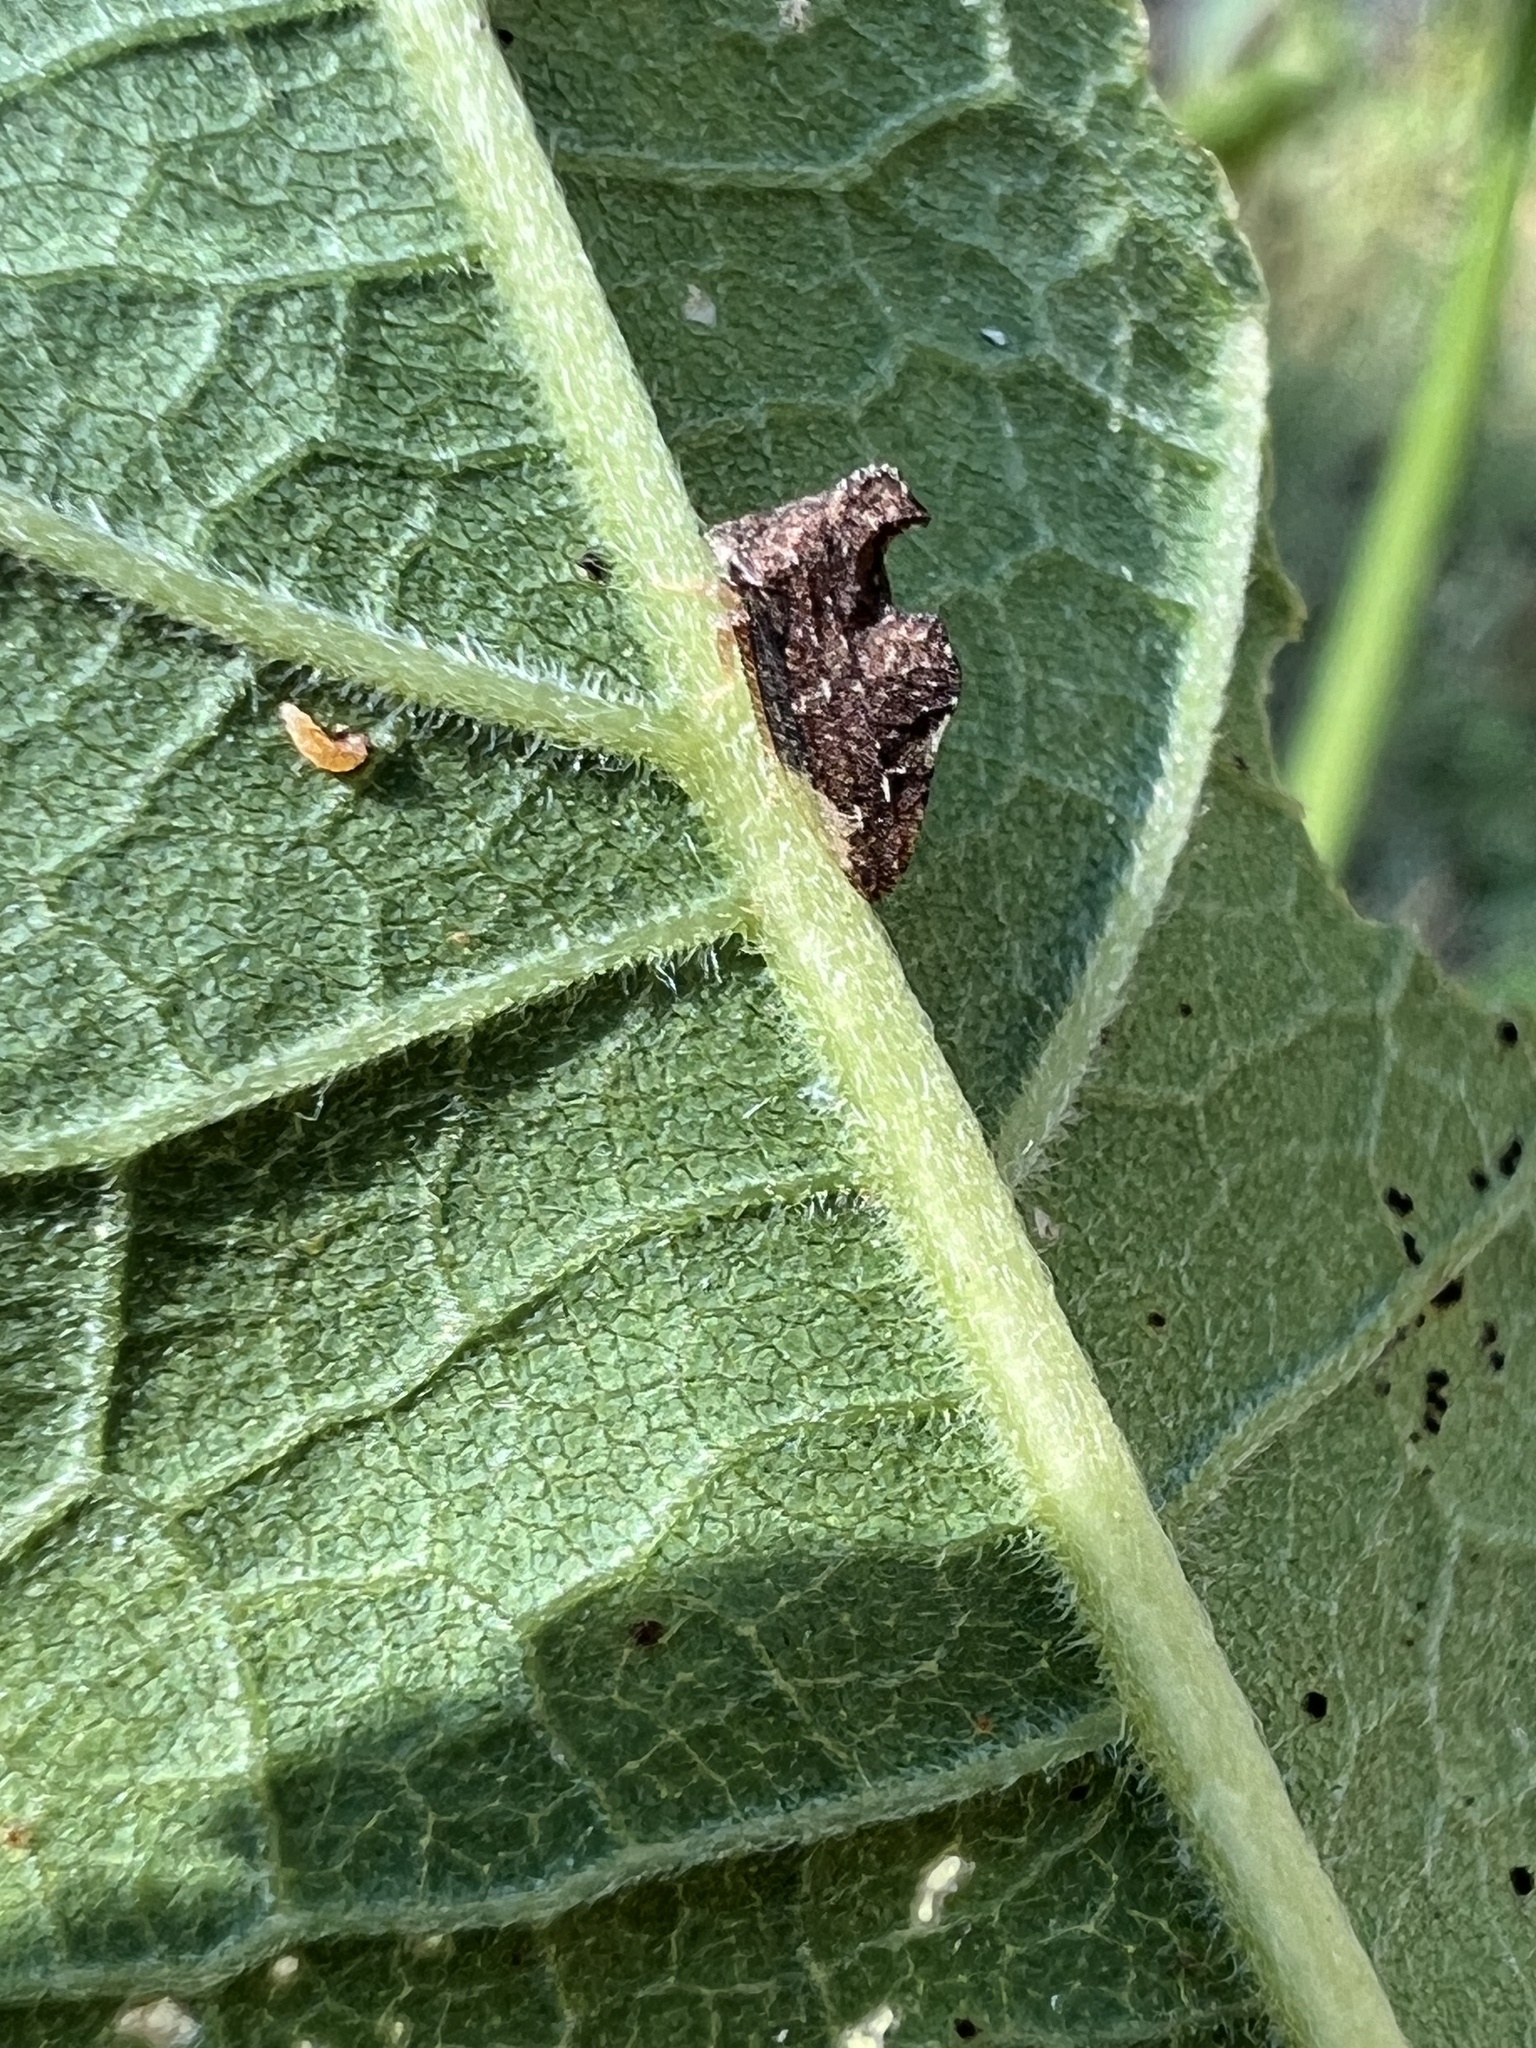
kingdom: Animalia
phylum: Arthropoda
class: Insecta
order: Hemiptera
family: Membracidae
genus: Entylia
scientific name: Entylia carinata
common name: Keeled treehopper
